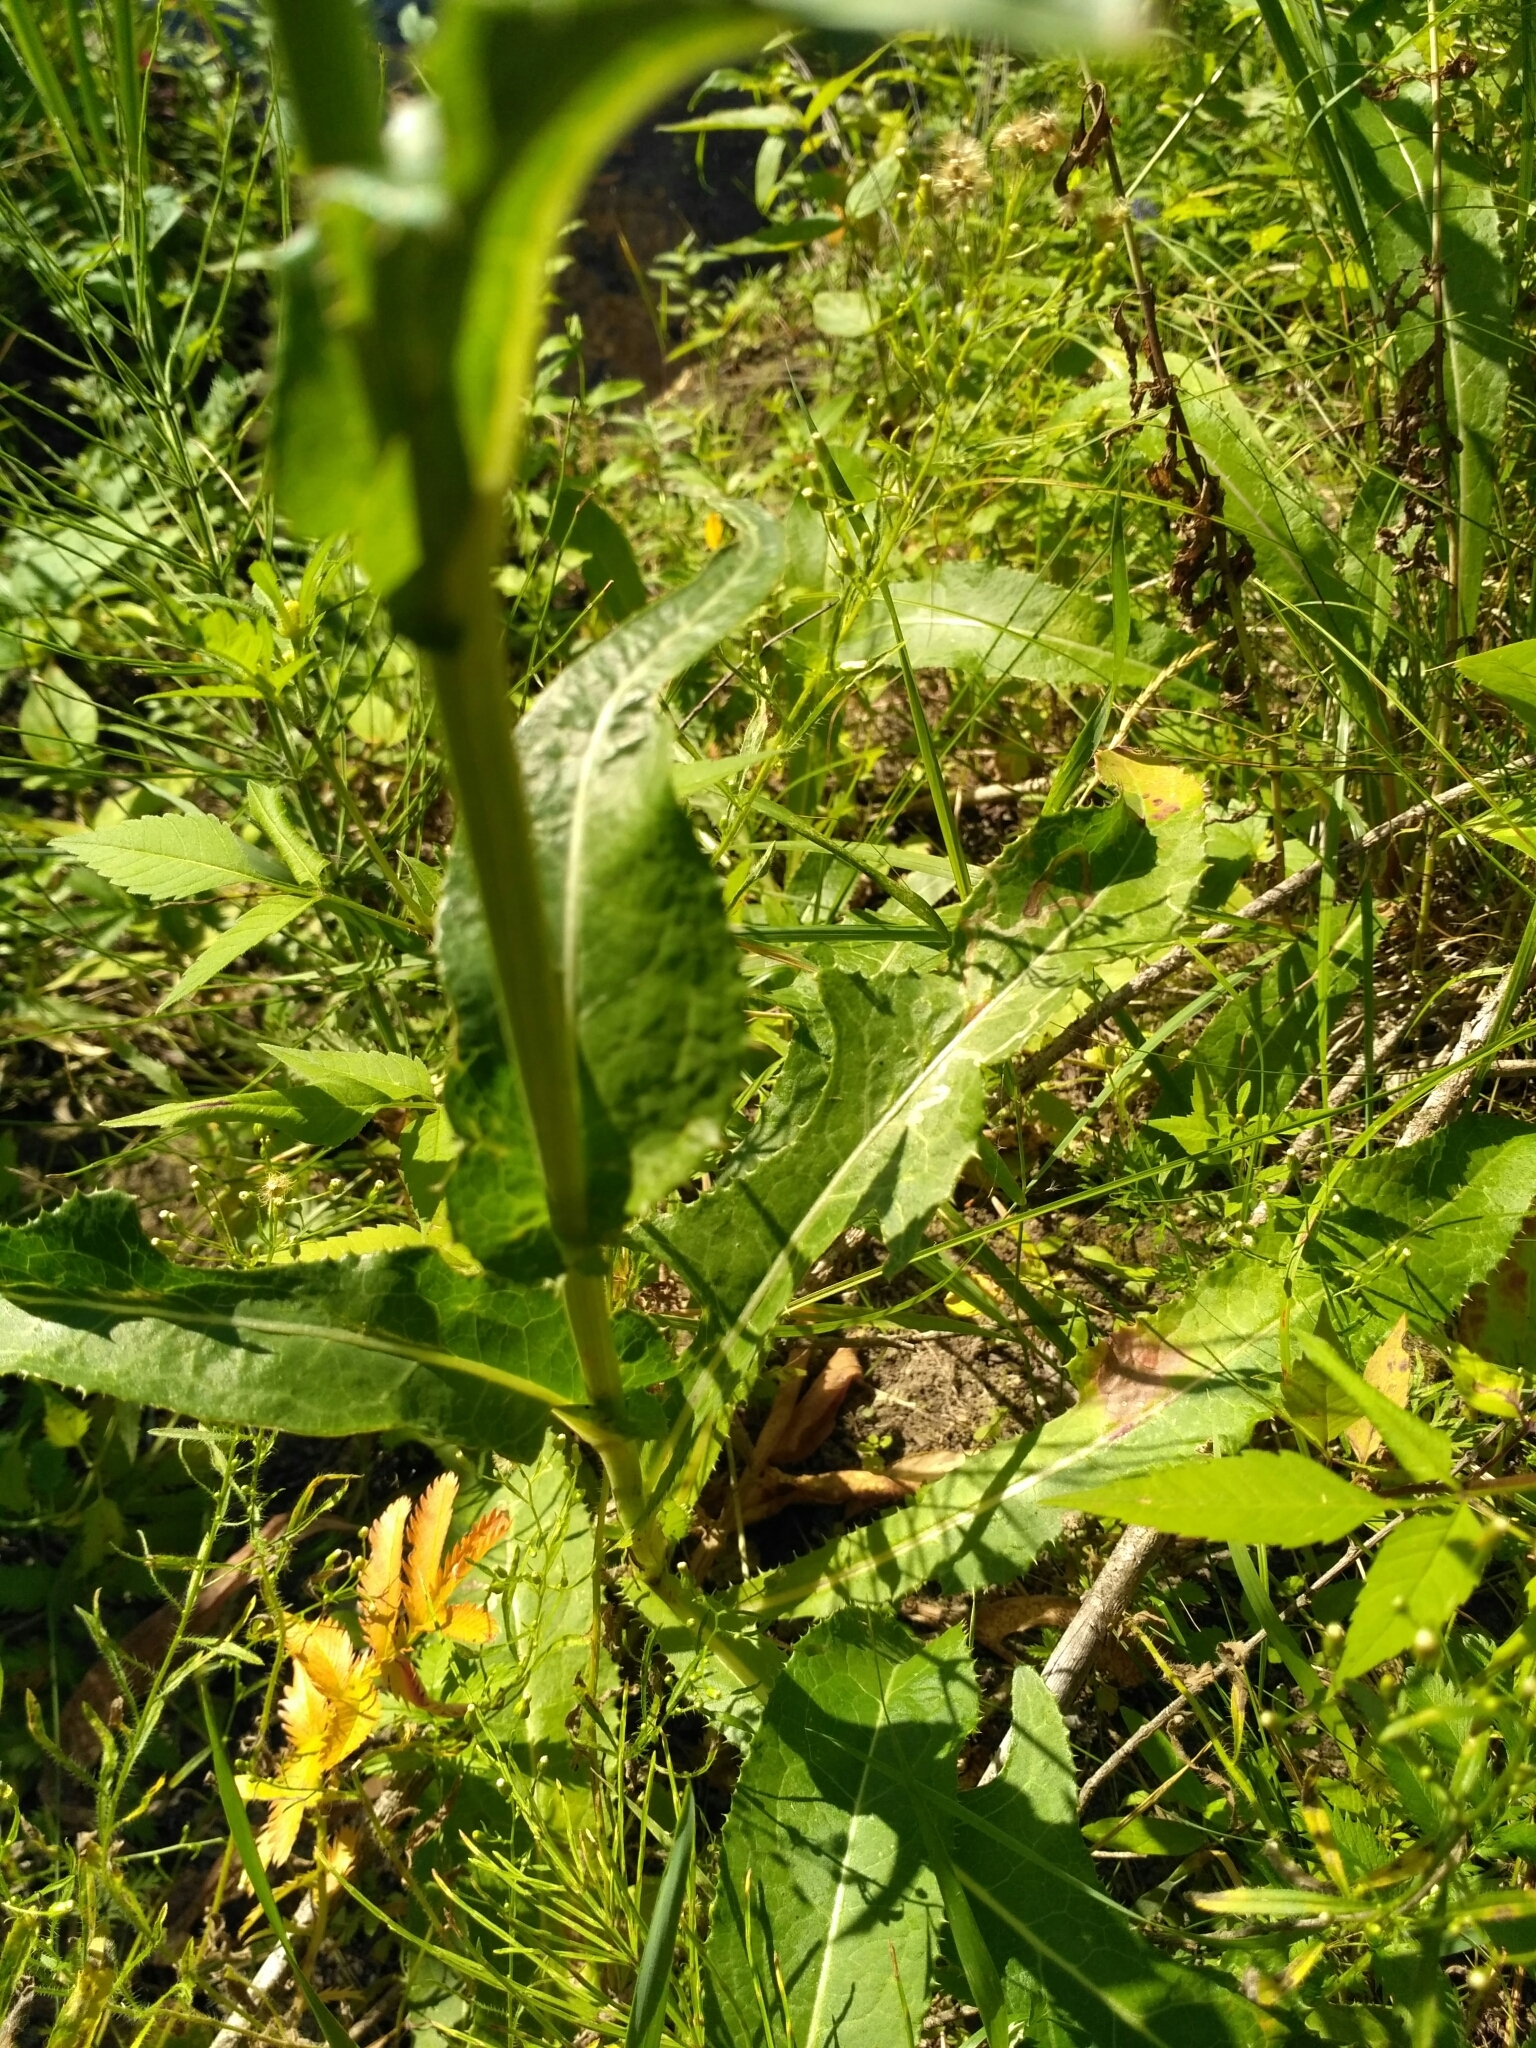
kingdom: Plantae
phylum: Tracheophyta
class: Magnoliopsida
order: Asterales
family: Asteraceae
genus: Sonchus
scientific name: Sonchus arvensis
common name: Perennial sow-thistle
